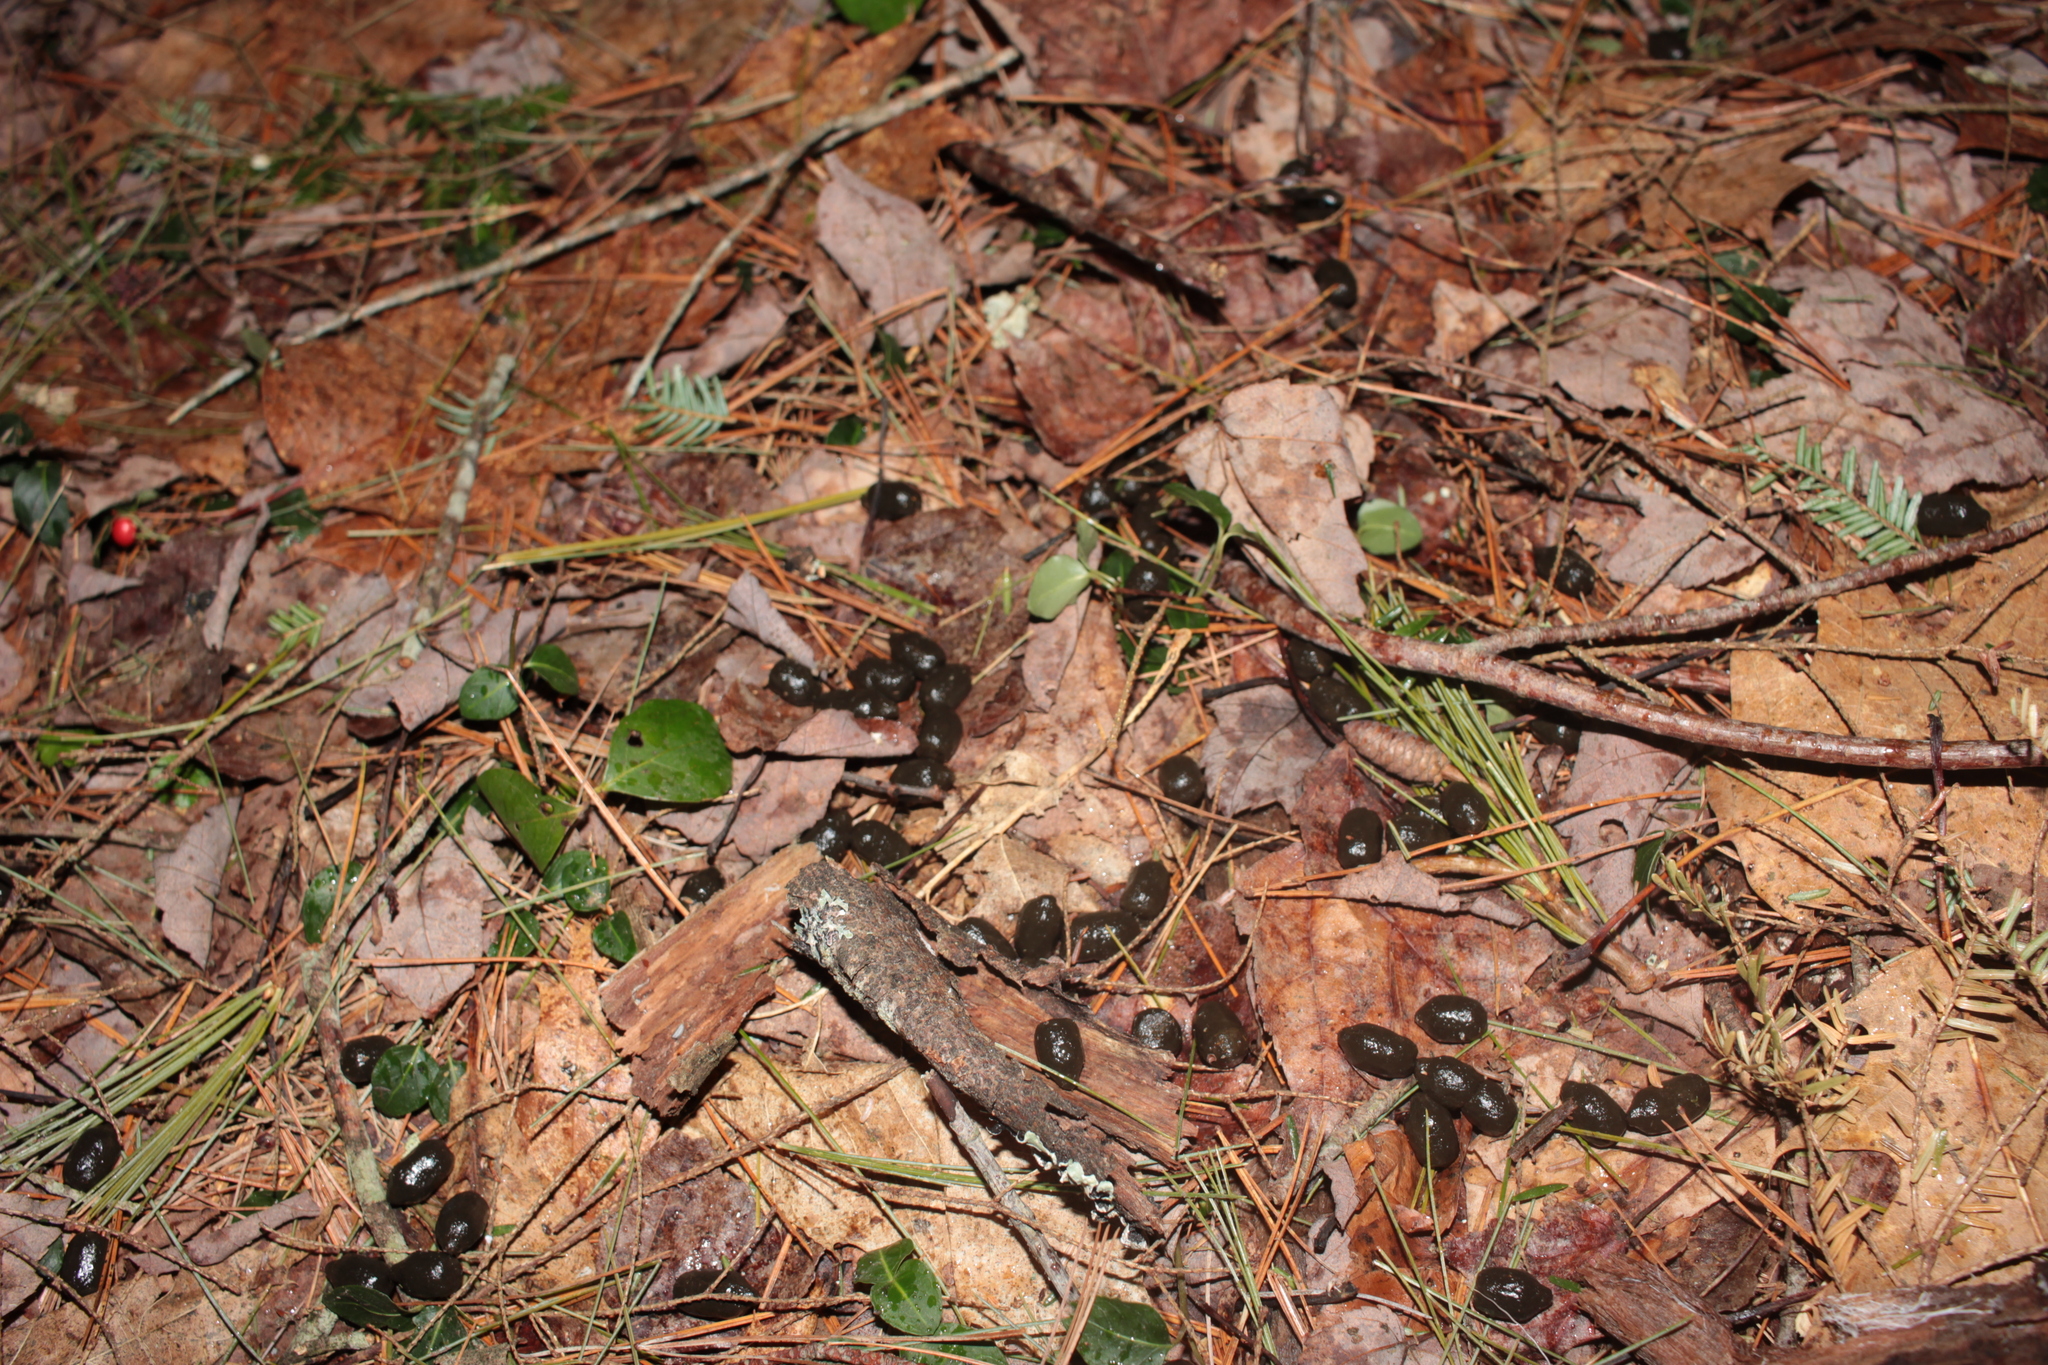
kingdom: Animalia
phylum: Chordata
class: Mammalia
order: Artiodactyla
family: Cervidae
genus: Odocoileus
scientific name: Odocoileus virginianus
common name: White-tailed deer
